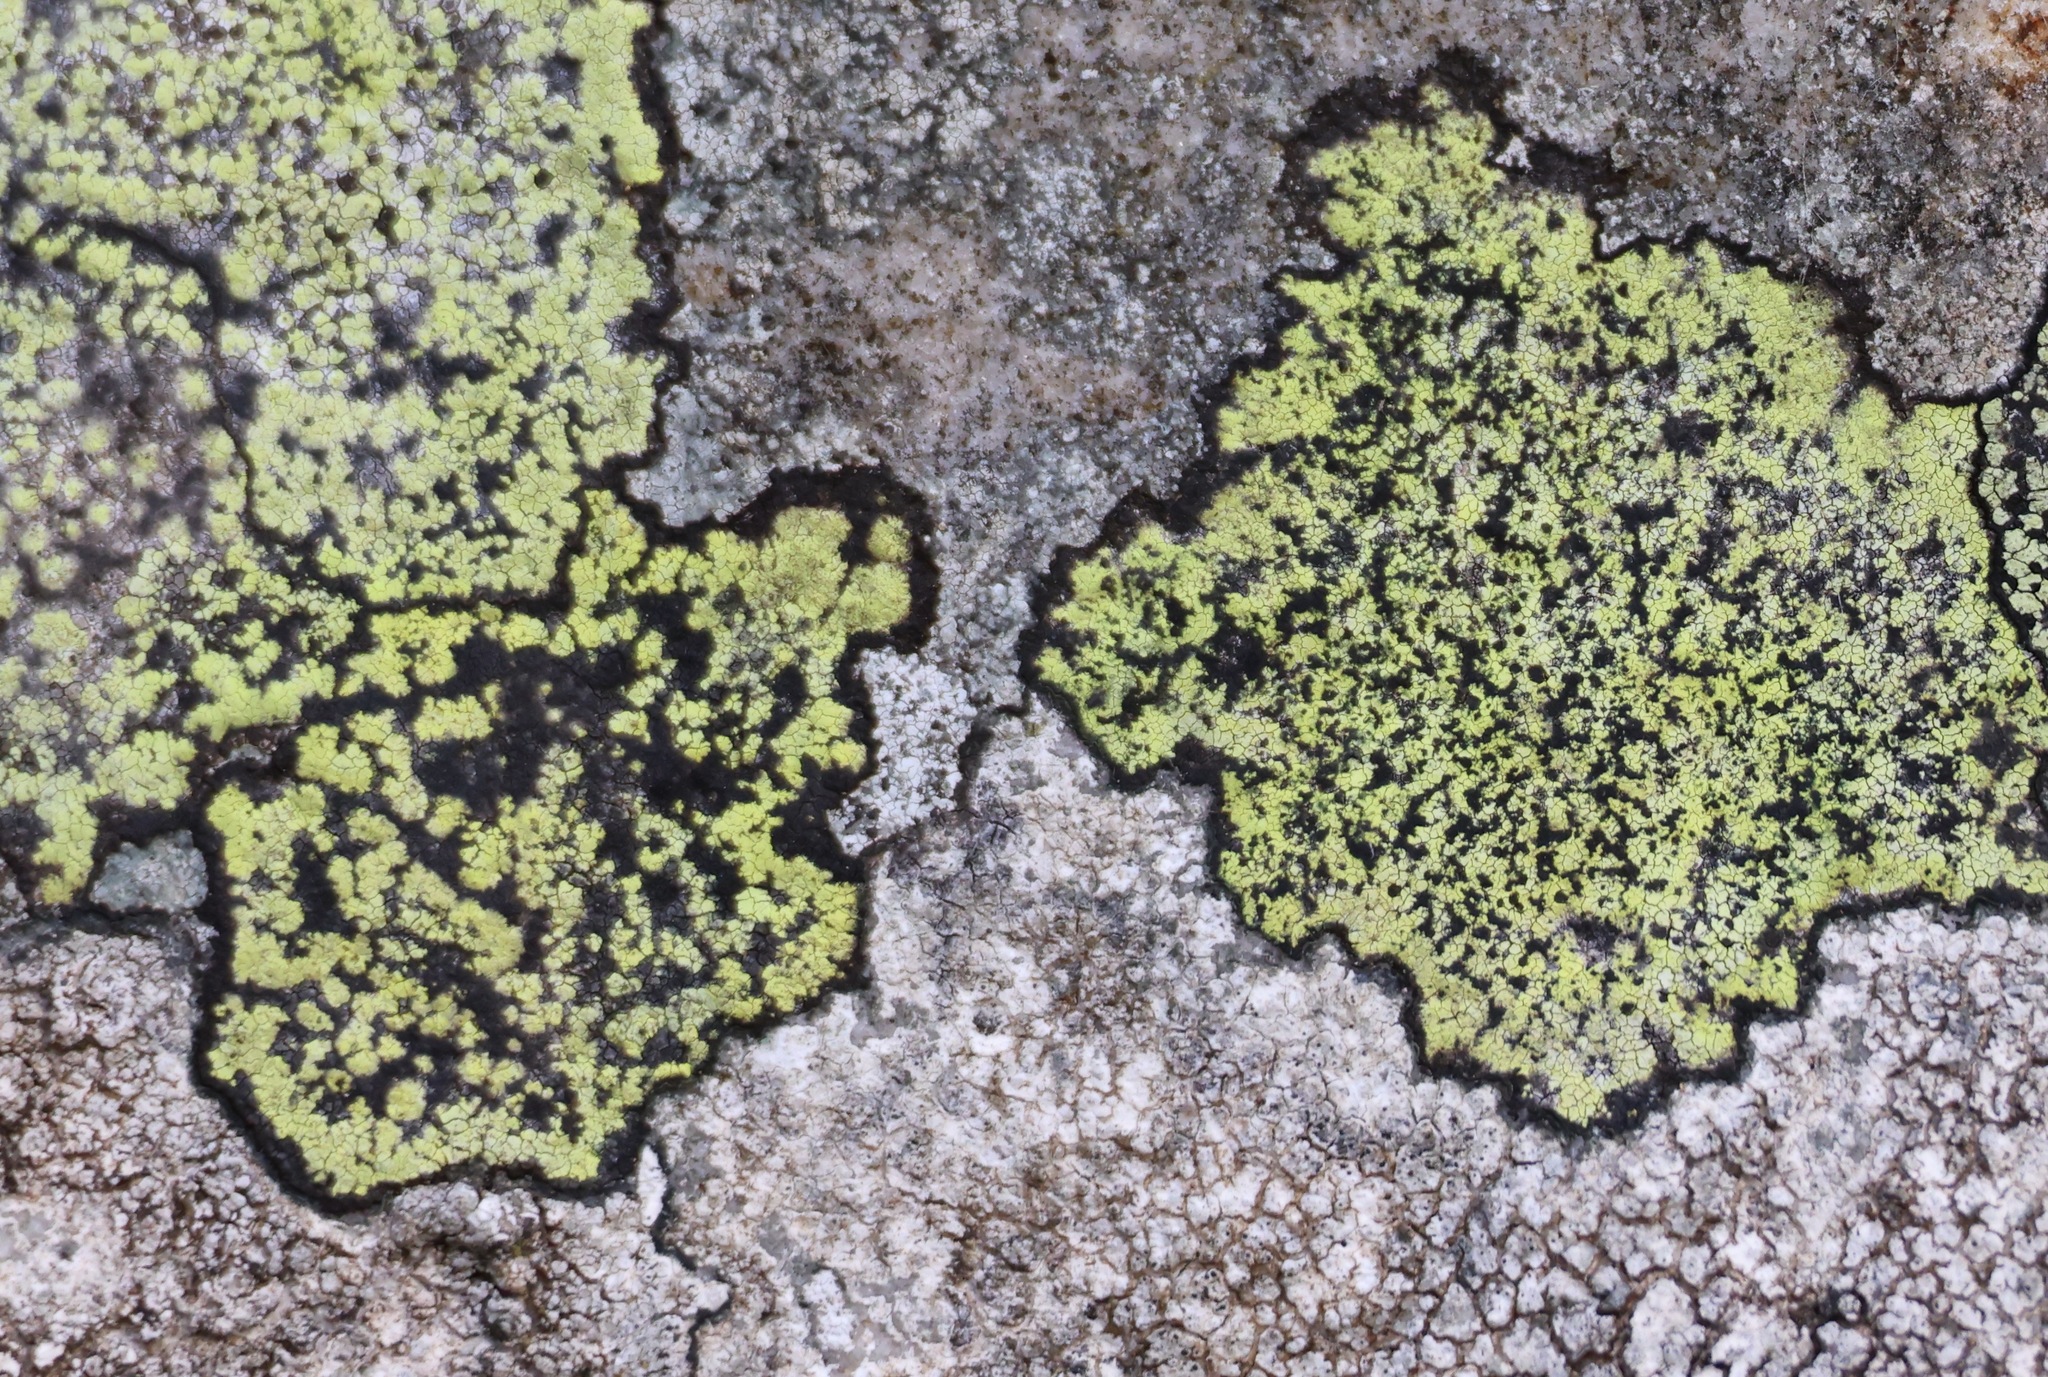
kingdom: Fungi
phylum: Ascomycota
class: Lecanoromycetes
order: Rhizocarpales
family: Rhizocarpaceae
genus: Rhizocarpon
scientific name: Rhizocarpon geographicum
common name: Yellow map lichen
